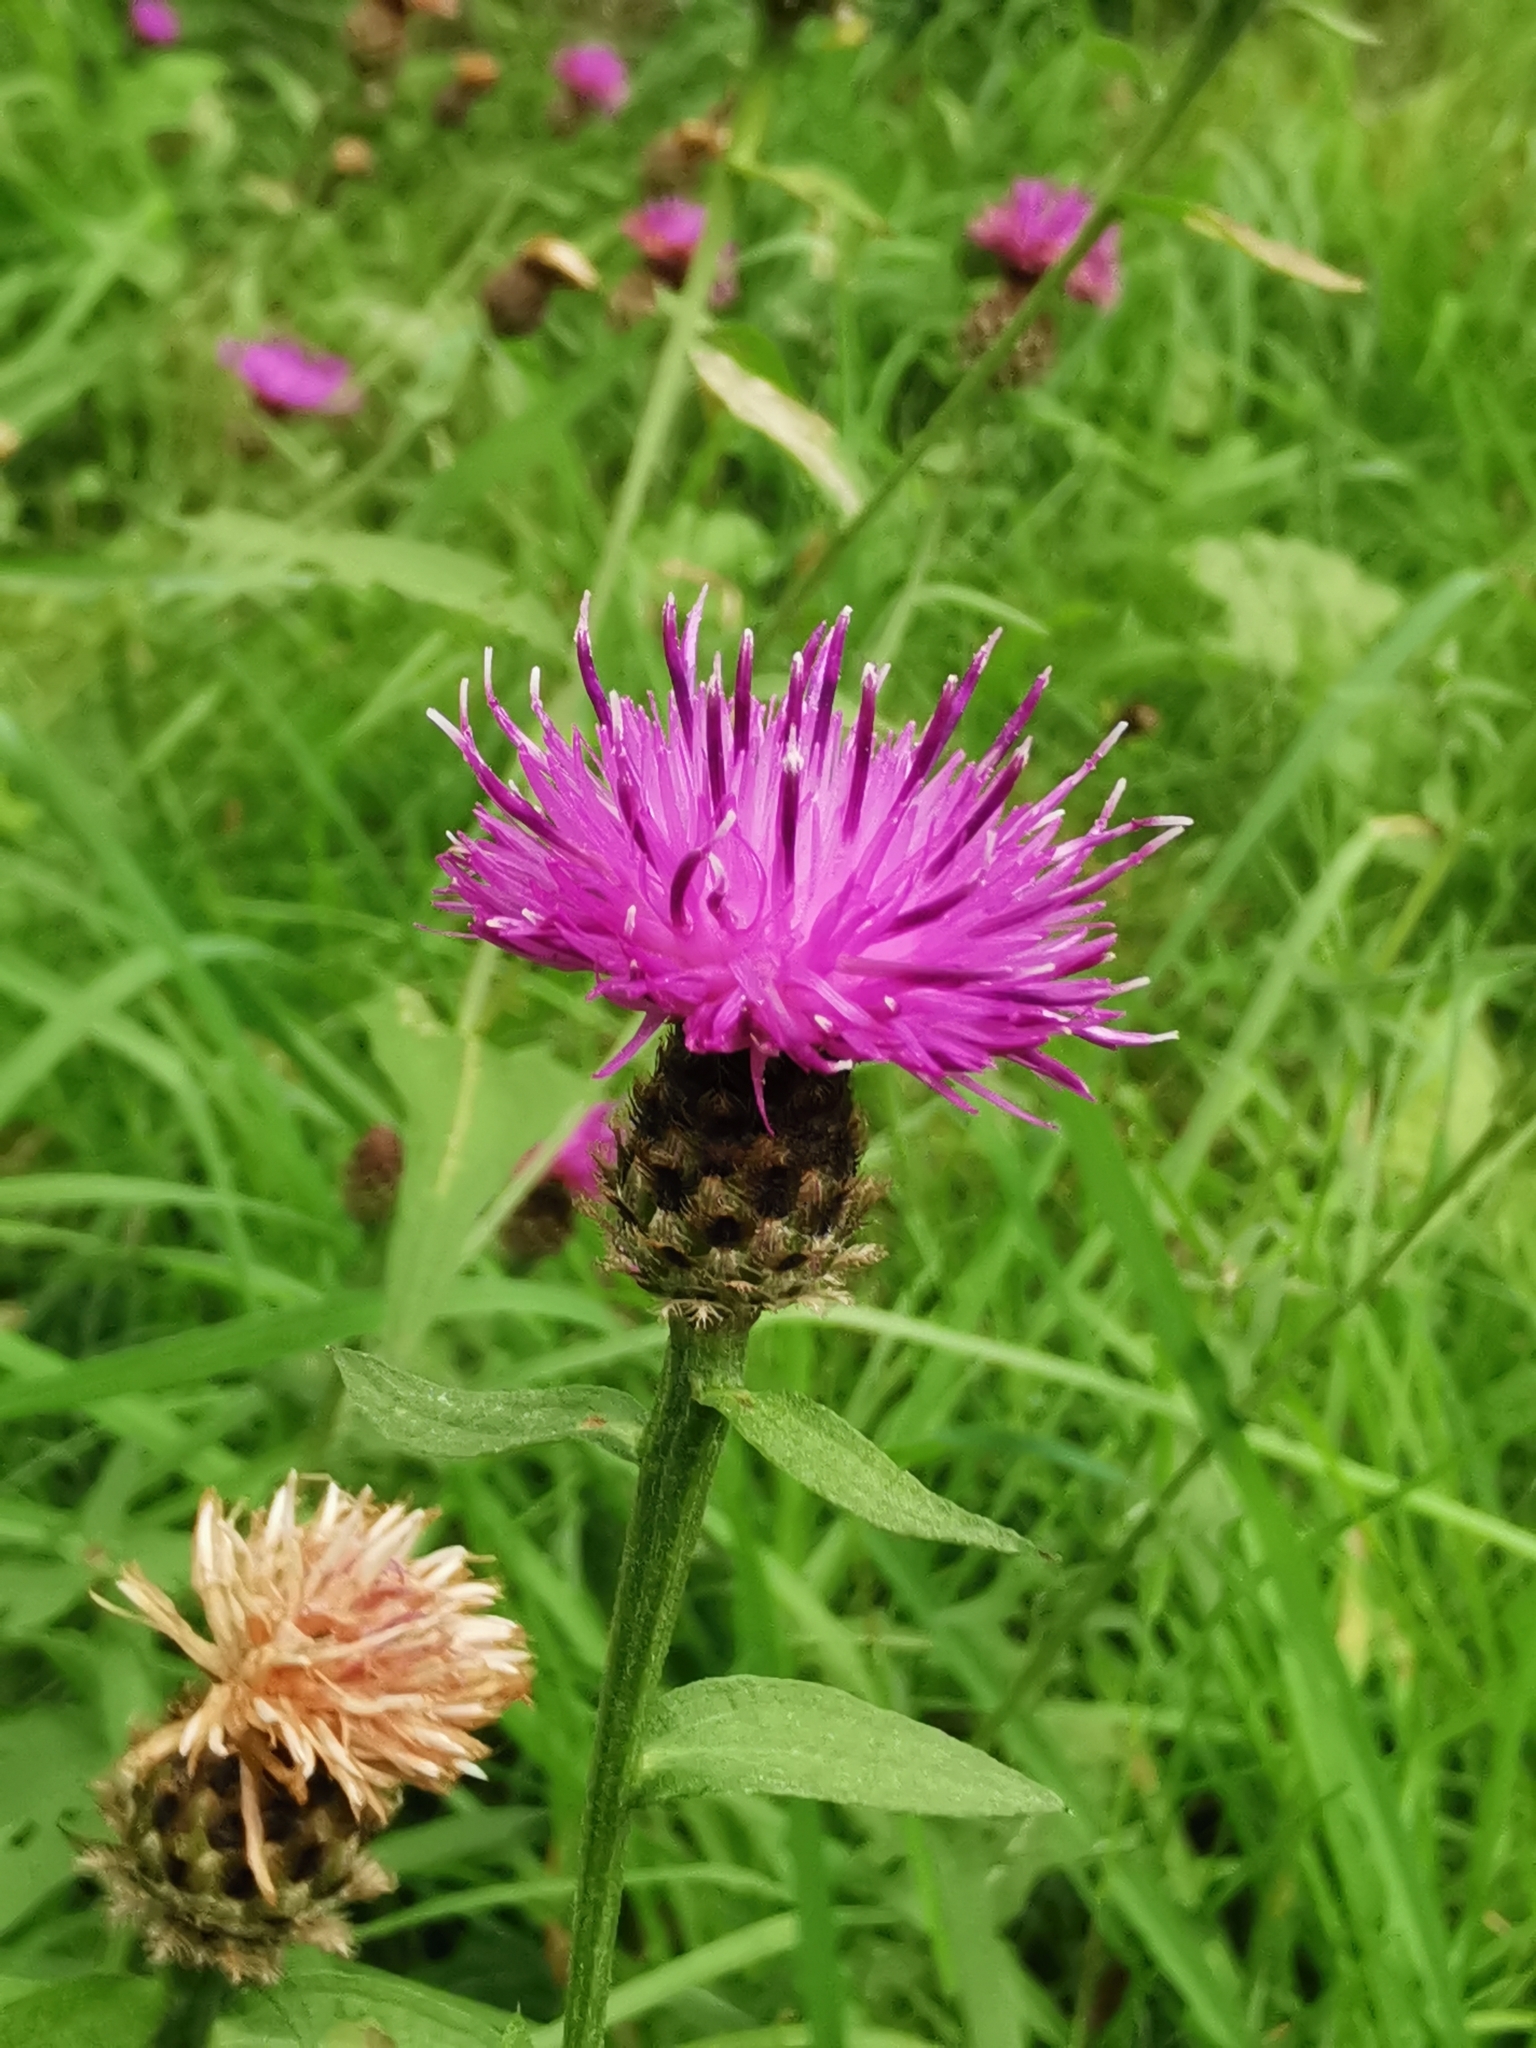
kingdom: Plantae
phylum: Tracheophyta
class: Magnoliopsida
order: Asterales
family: Asteraceae
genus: Centaurea
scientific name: Centaurea nigra
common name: Lesser knapweed
